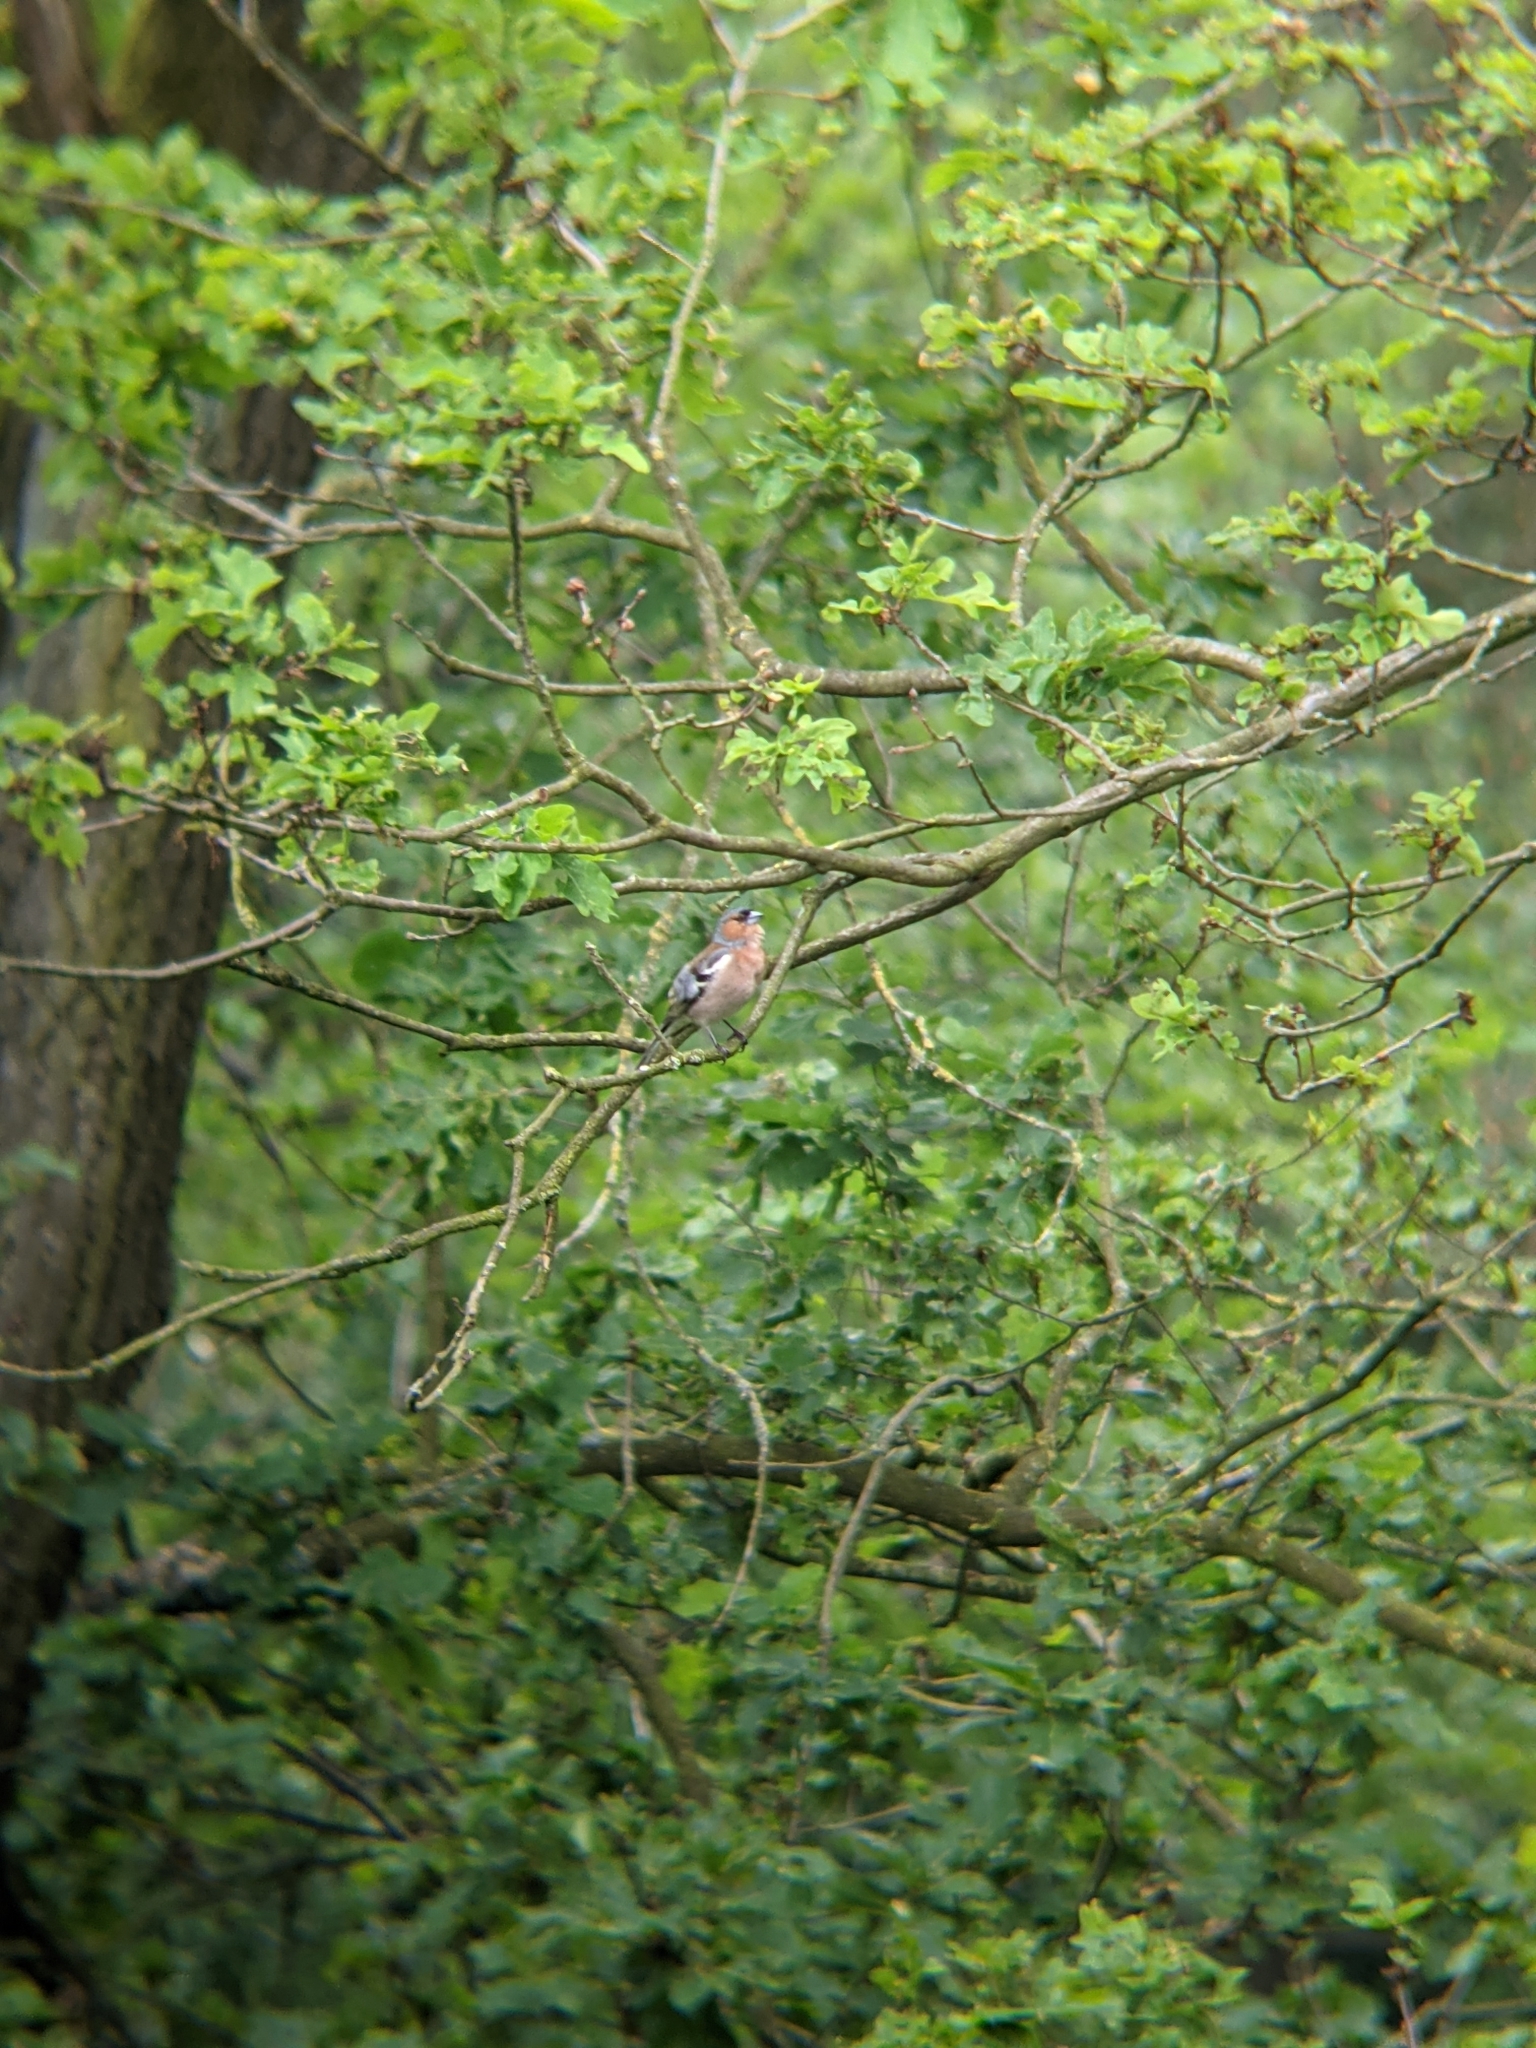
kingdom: Animalia
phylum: Chordata
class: Aves
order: Passeriformes
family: Fringillidae
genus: Fringilla
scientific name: Fringilla coelebs
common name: Common chaffinch
